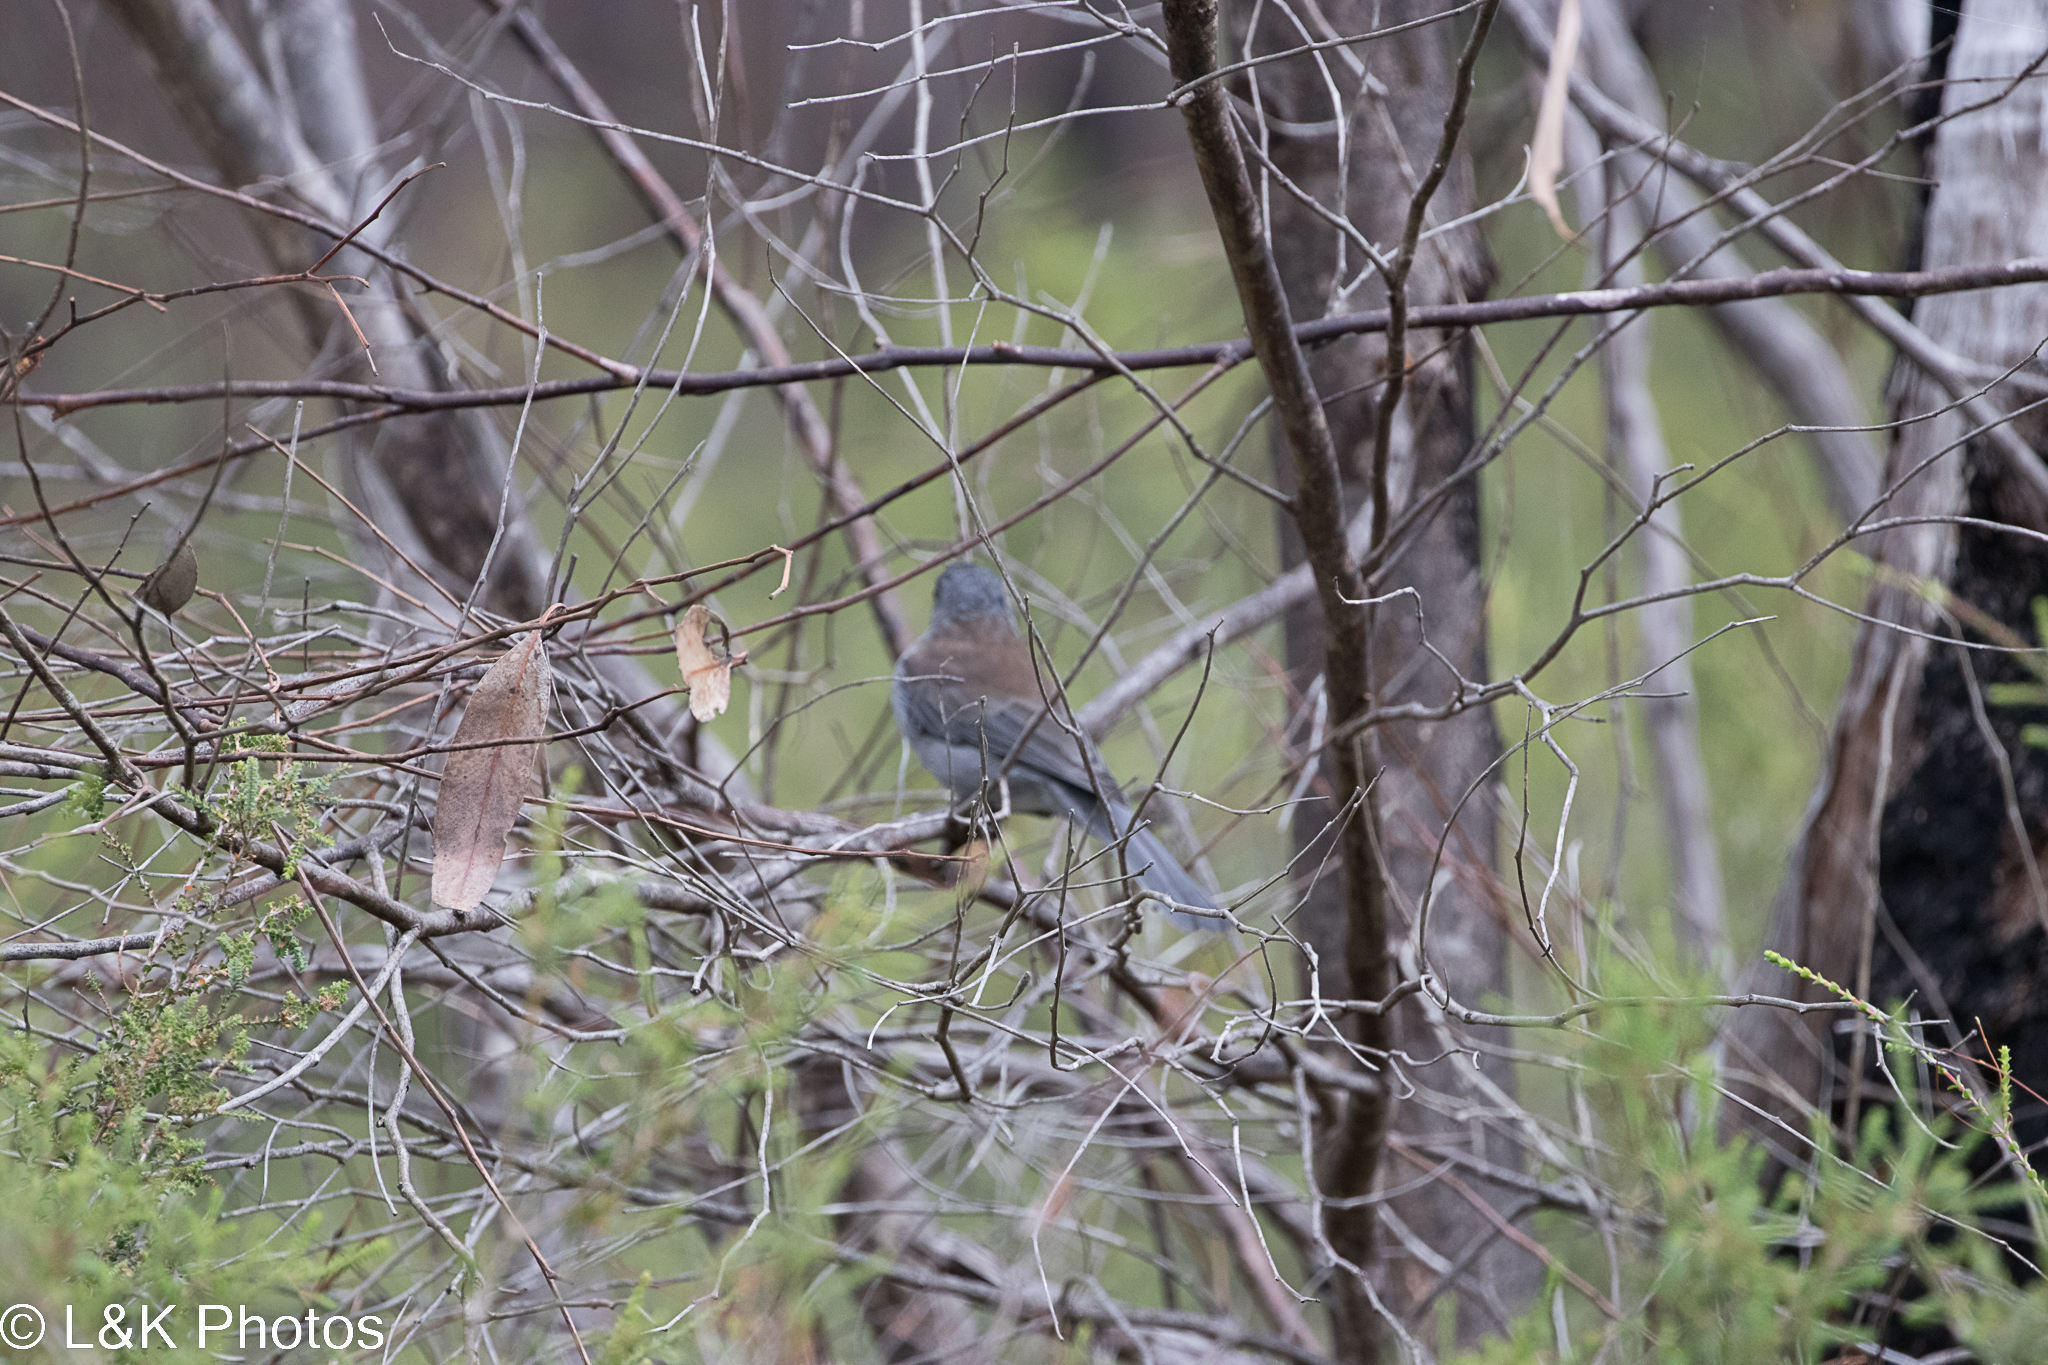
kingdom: Animalia
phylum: Chordata
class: Aves
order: Passeriformes
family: Pachycephalidae
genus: Colluricincla
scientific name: Colluricincla harmonica
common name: Grey shrikethrush
